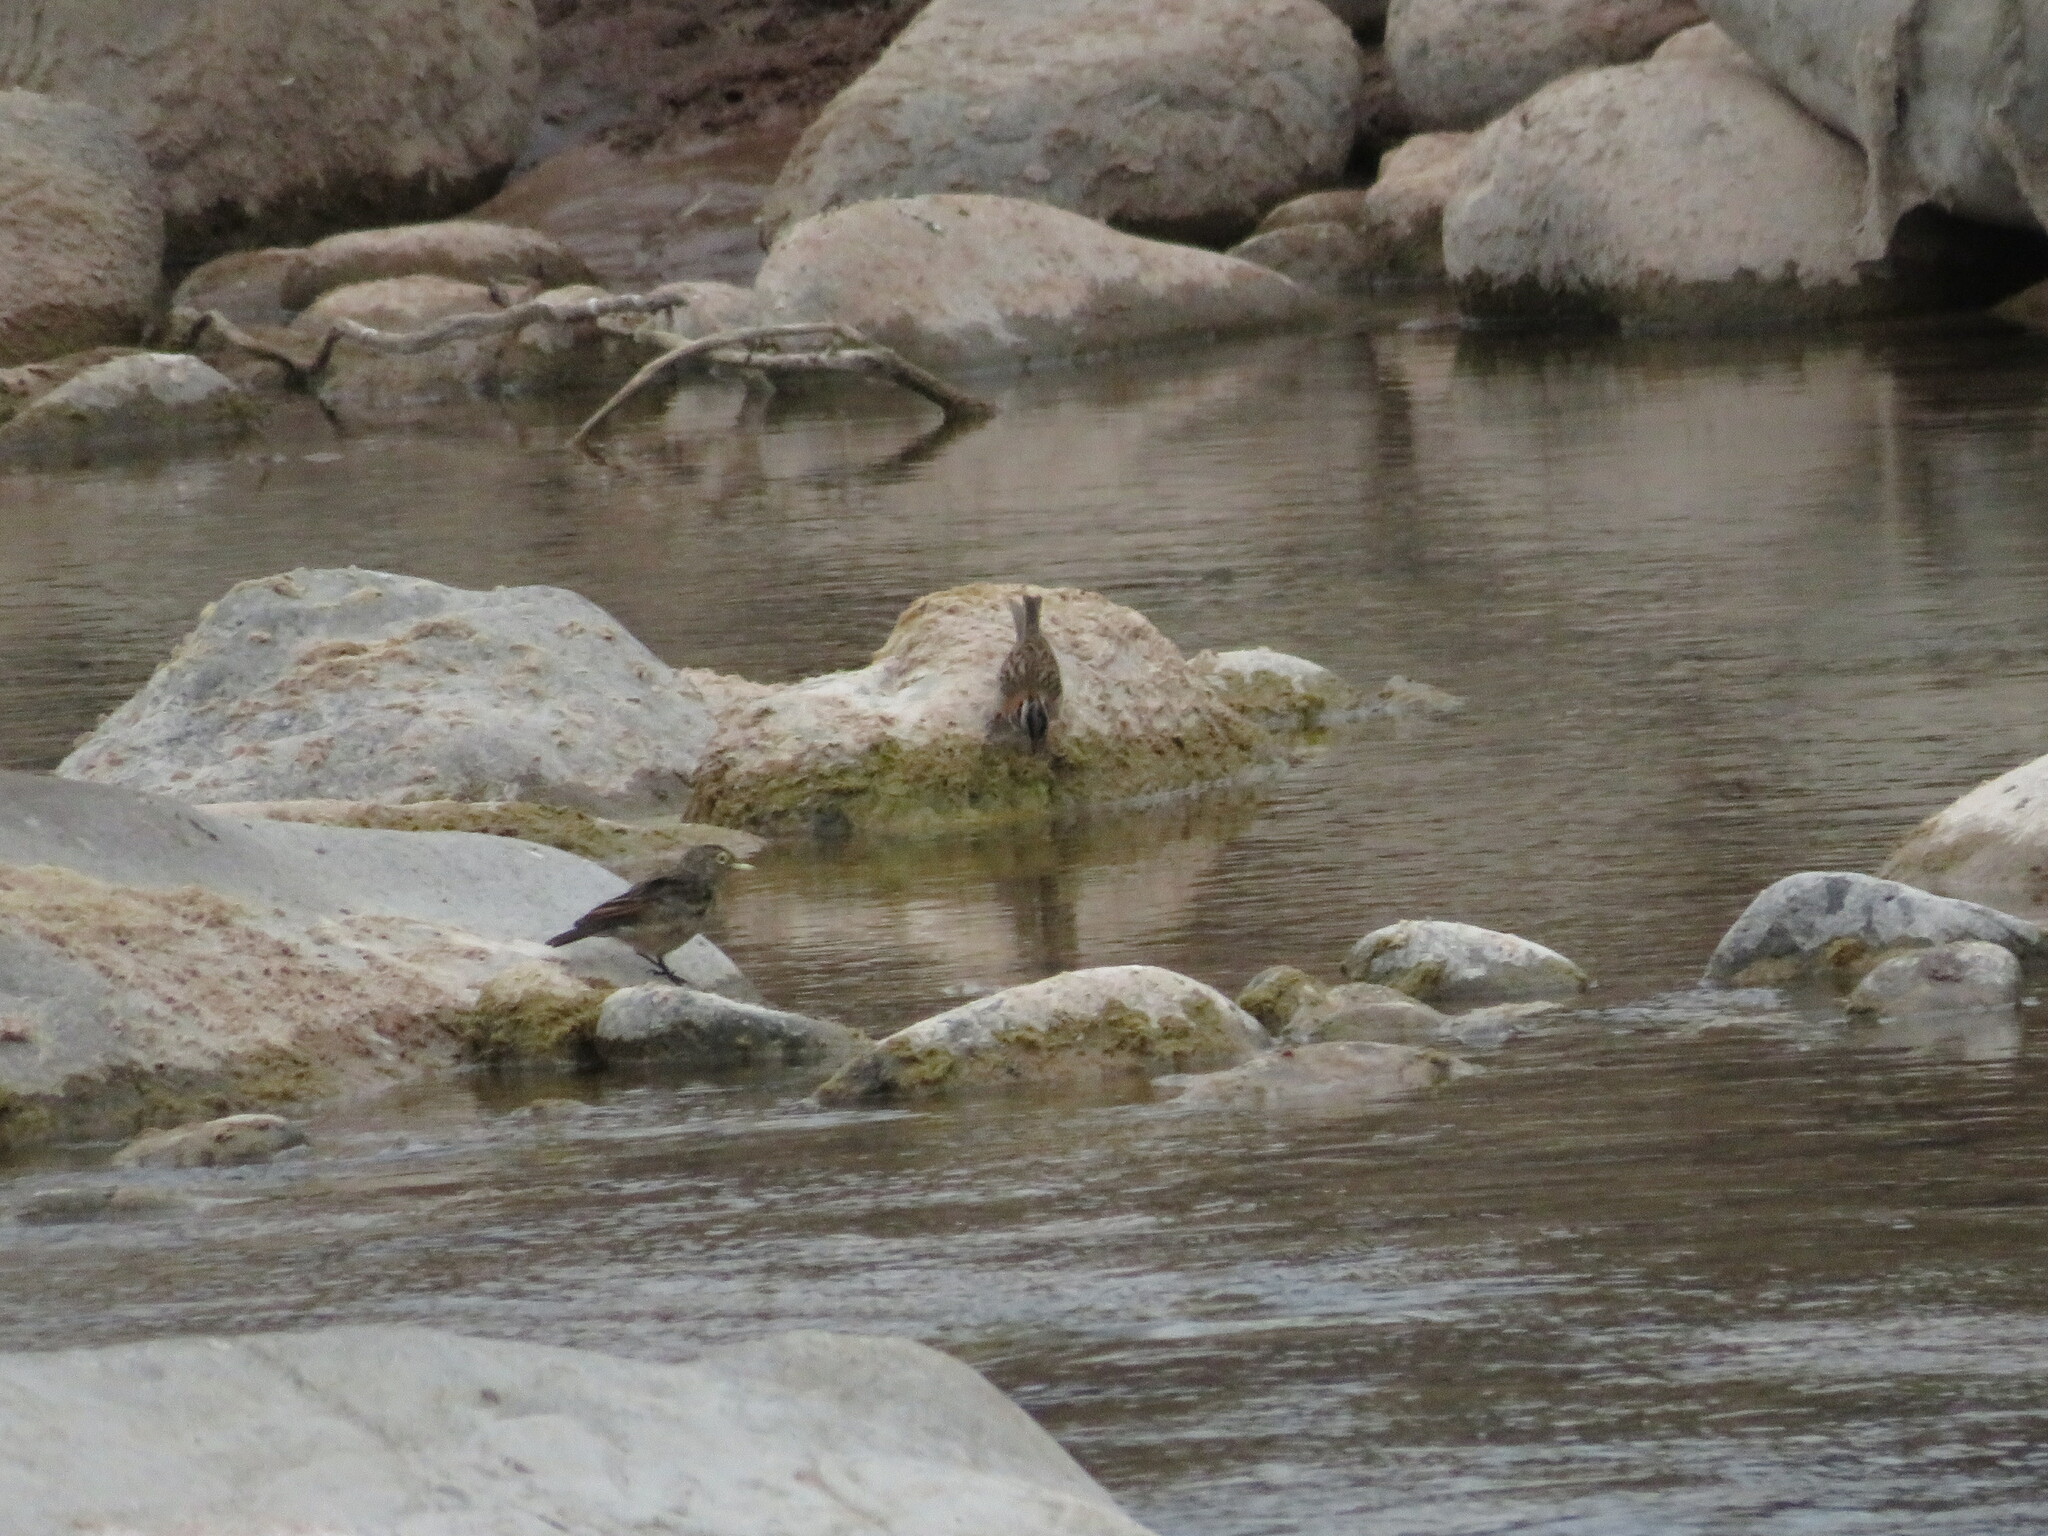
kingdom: Animalia
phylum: Chordata
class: Aves
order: Passeriformes
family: Passerellidae
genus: Zonotrichia
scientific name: Zonotrichia capensis
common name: Rufous-collared sparrow
